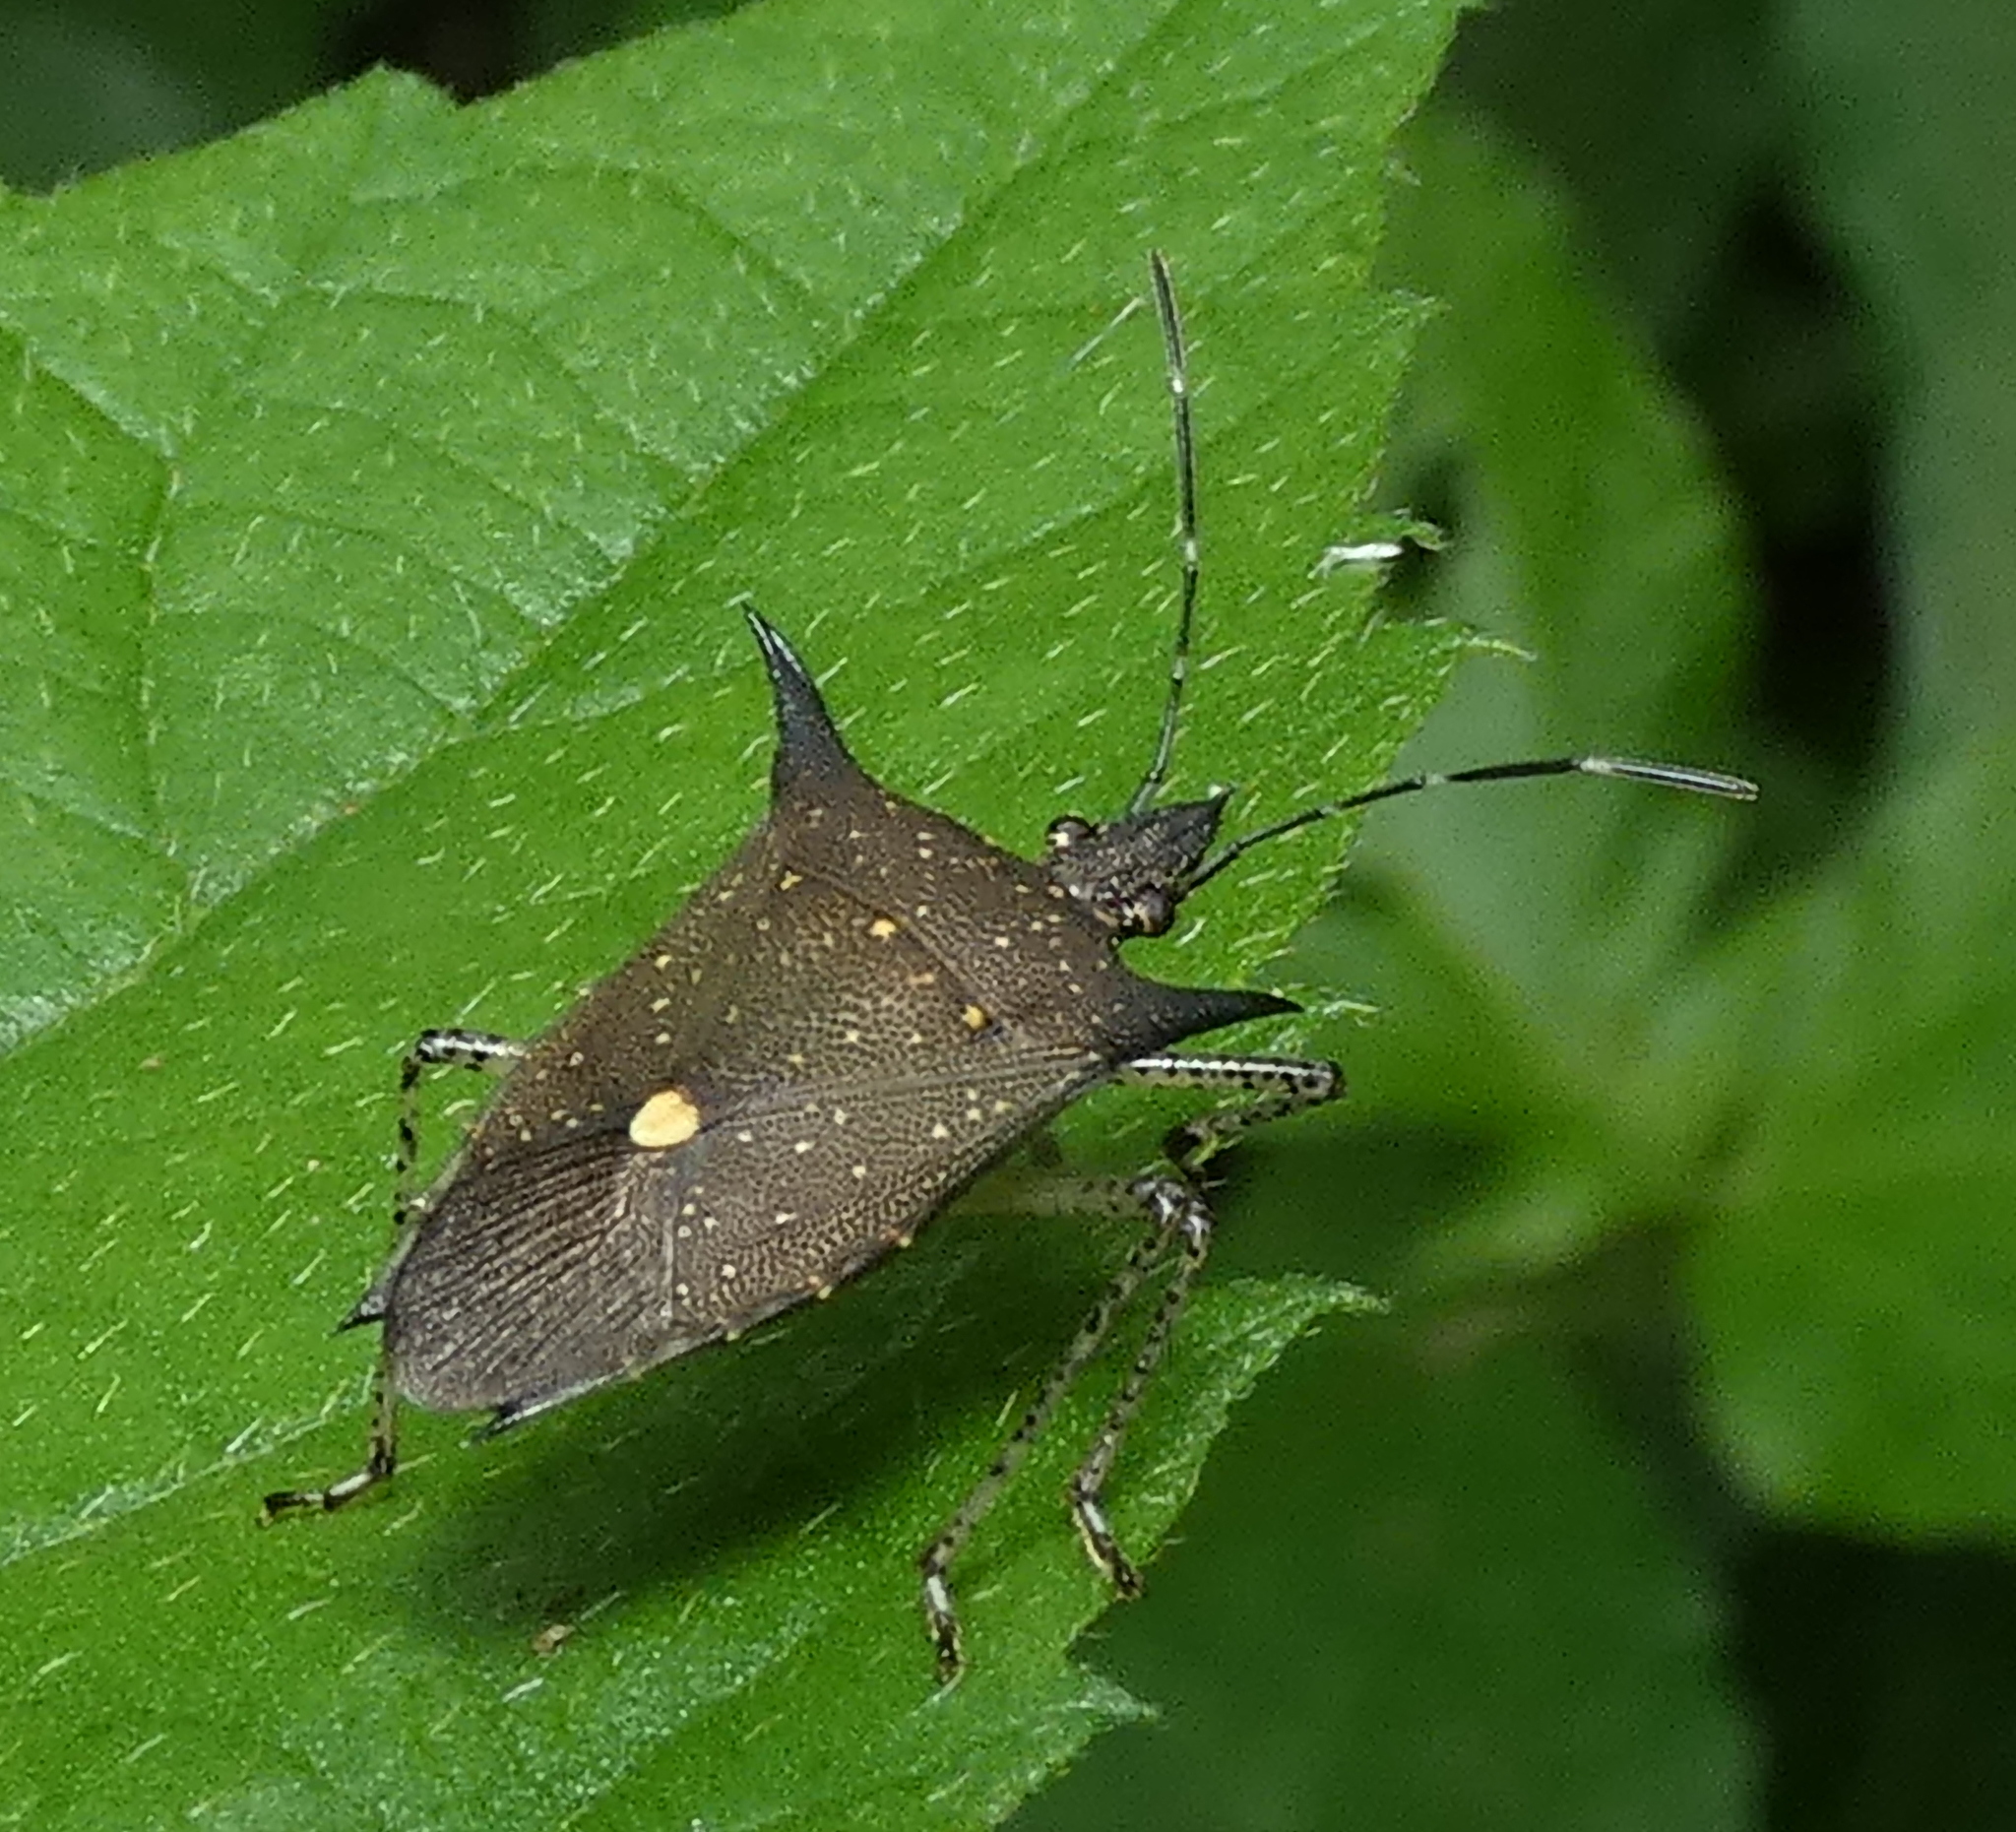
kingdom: Animalia
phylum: Arthropoda
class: Insecta
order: Hemiptera
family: Pentatomidae
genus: Proxys
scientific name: Proxys albopunctulatus
